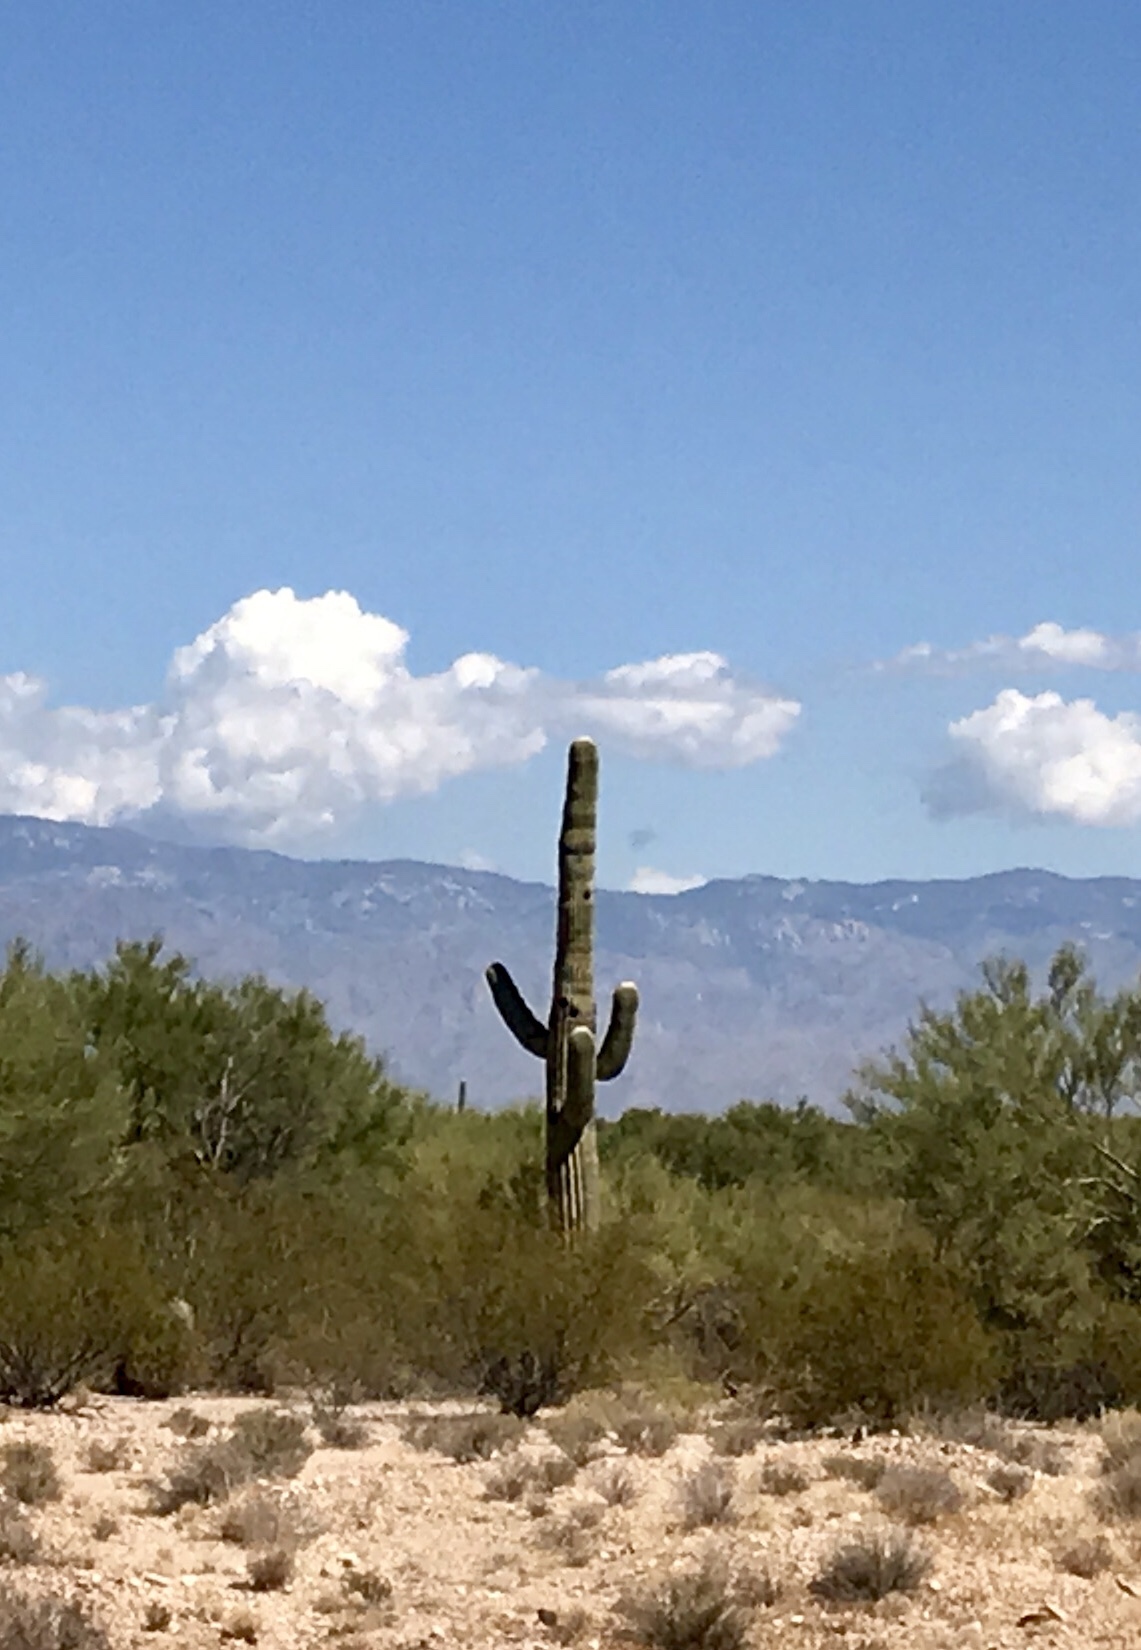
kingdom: Plantae
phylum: Tracheophyta
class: Magnoliopsida
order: Caryophyllales
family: Cactaceae
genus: Carnegiea
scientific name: Carnegiea gigantea
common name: Saguaro
